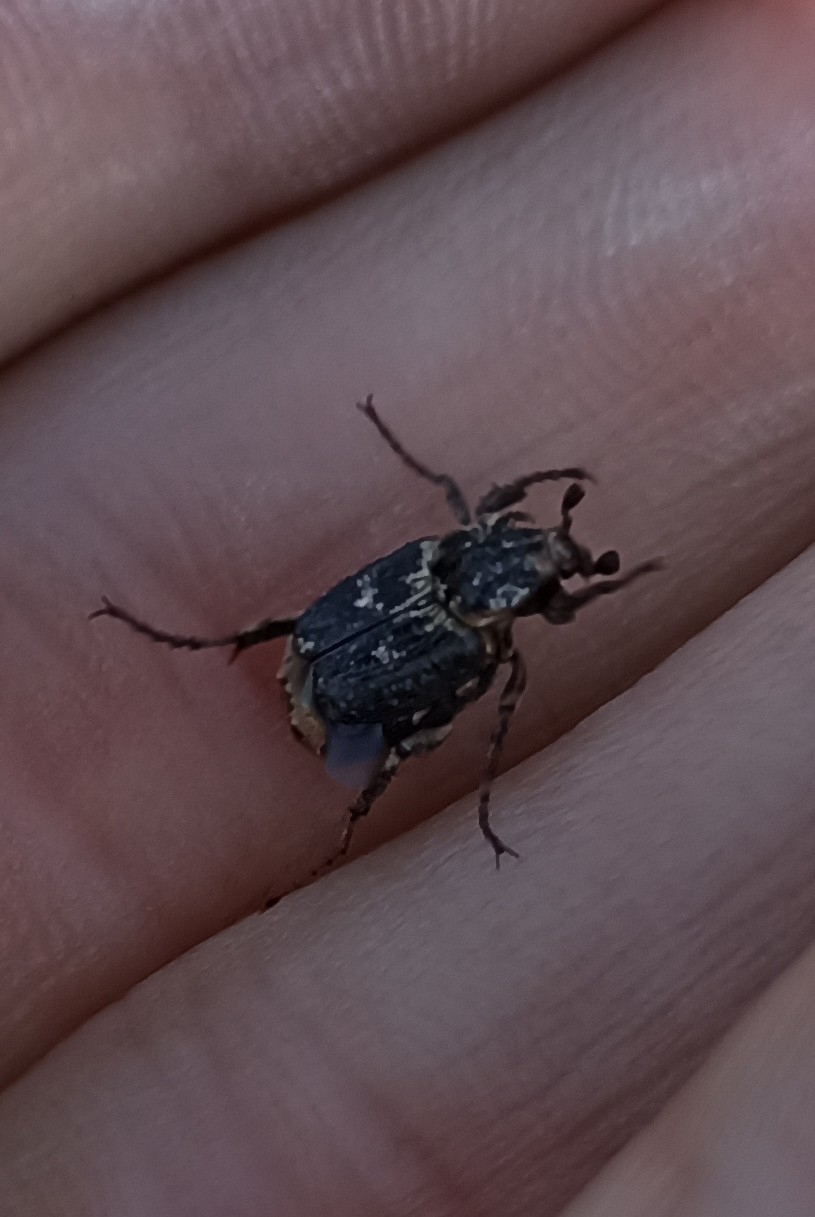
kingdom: Animalia
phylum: Arthropoda
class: Insecta
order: Coleoptera
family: Scarabaeidae
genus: Valgus
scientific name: Valgus hemipterus
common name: Bug flower chafer
